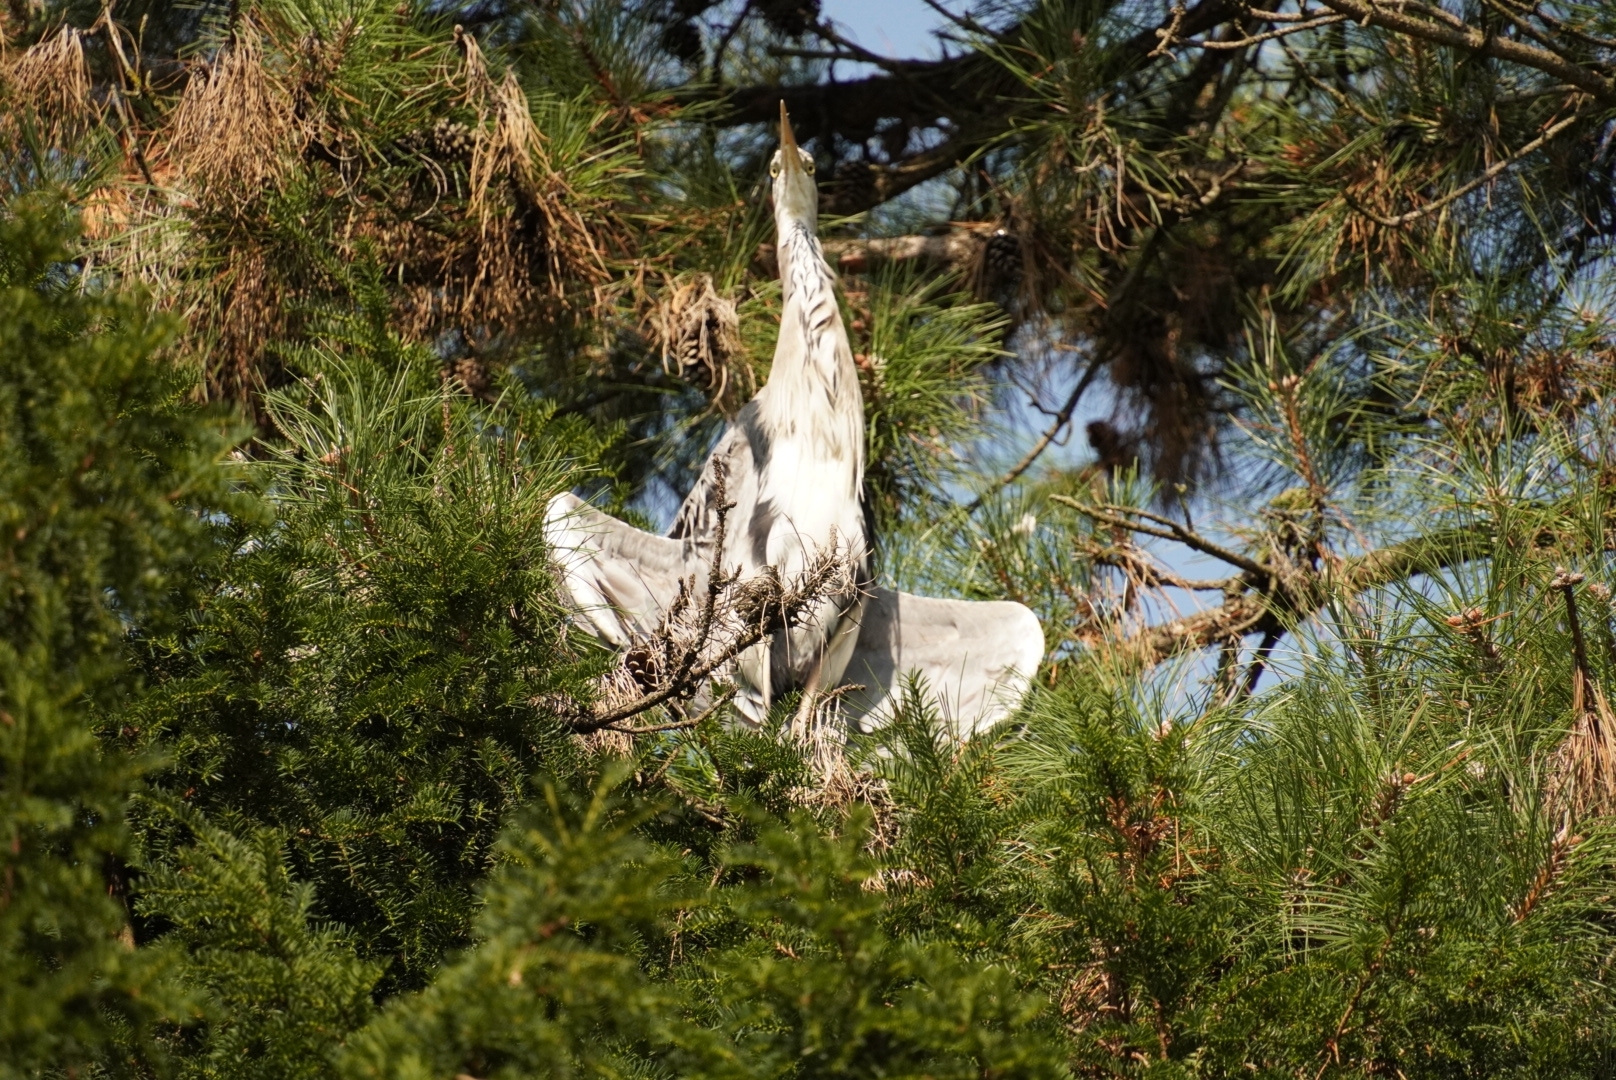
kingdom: Animalia
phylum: Chordata
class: Aves
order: Pelecaniformes
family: Ardeidae
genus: Ardea
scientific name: Ardea cinerea
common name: Grey heron
